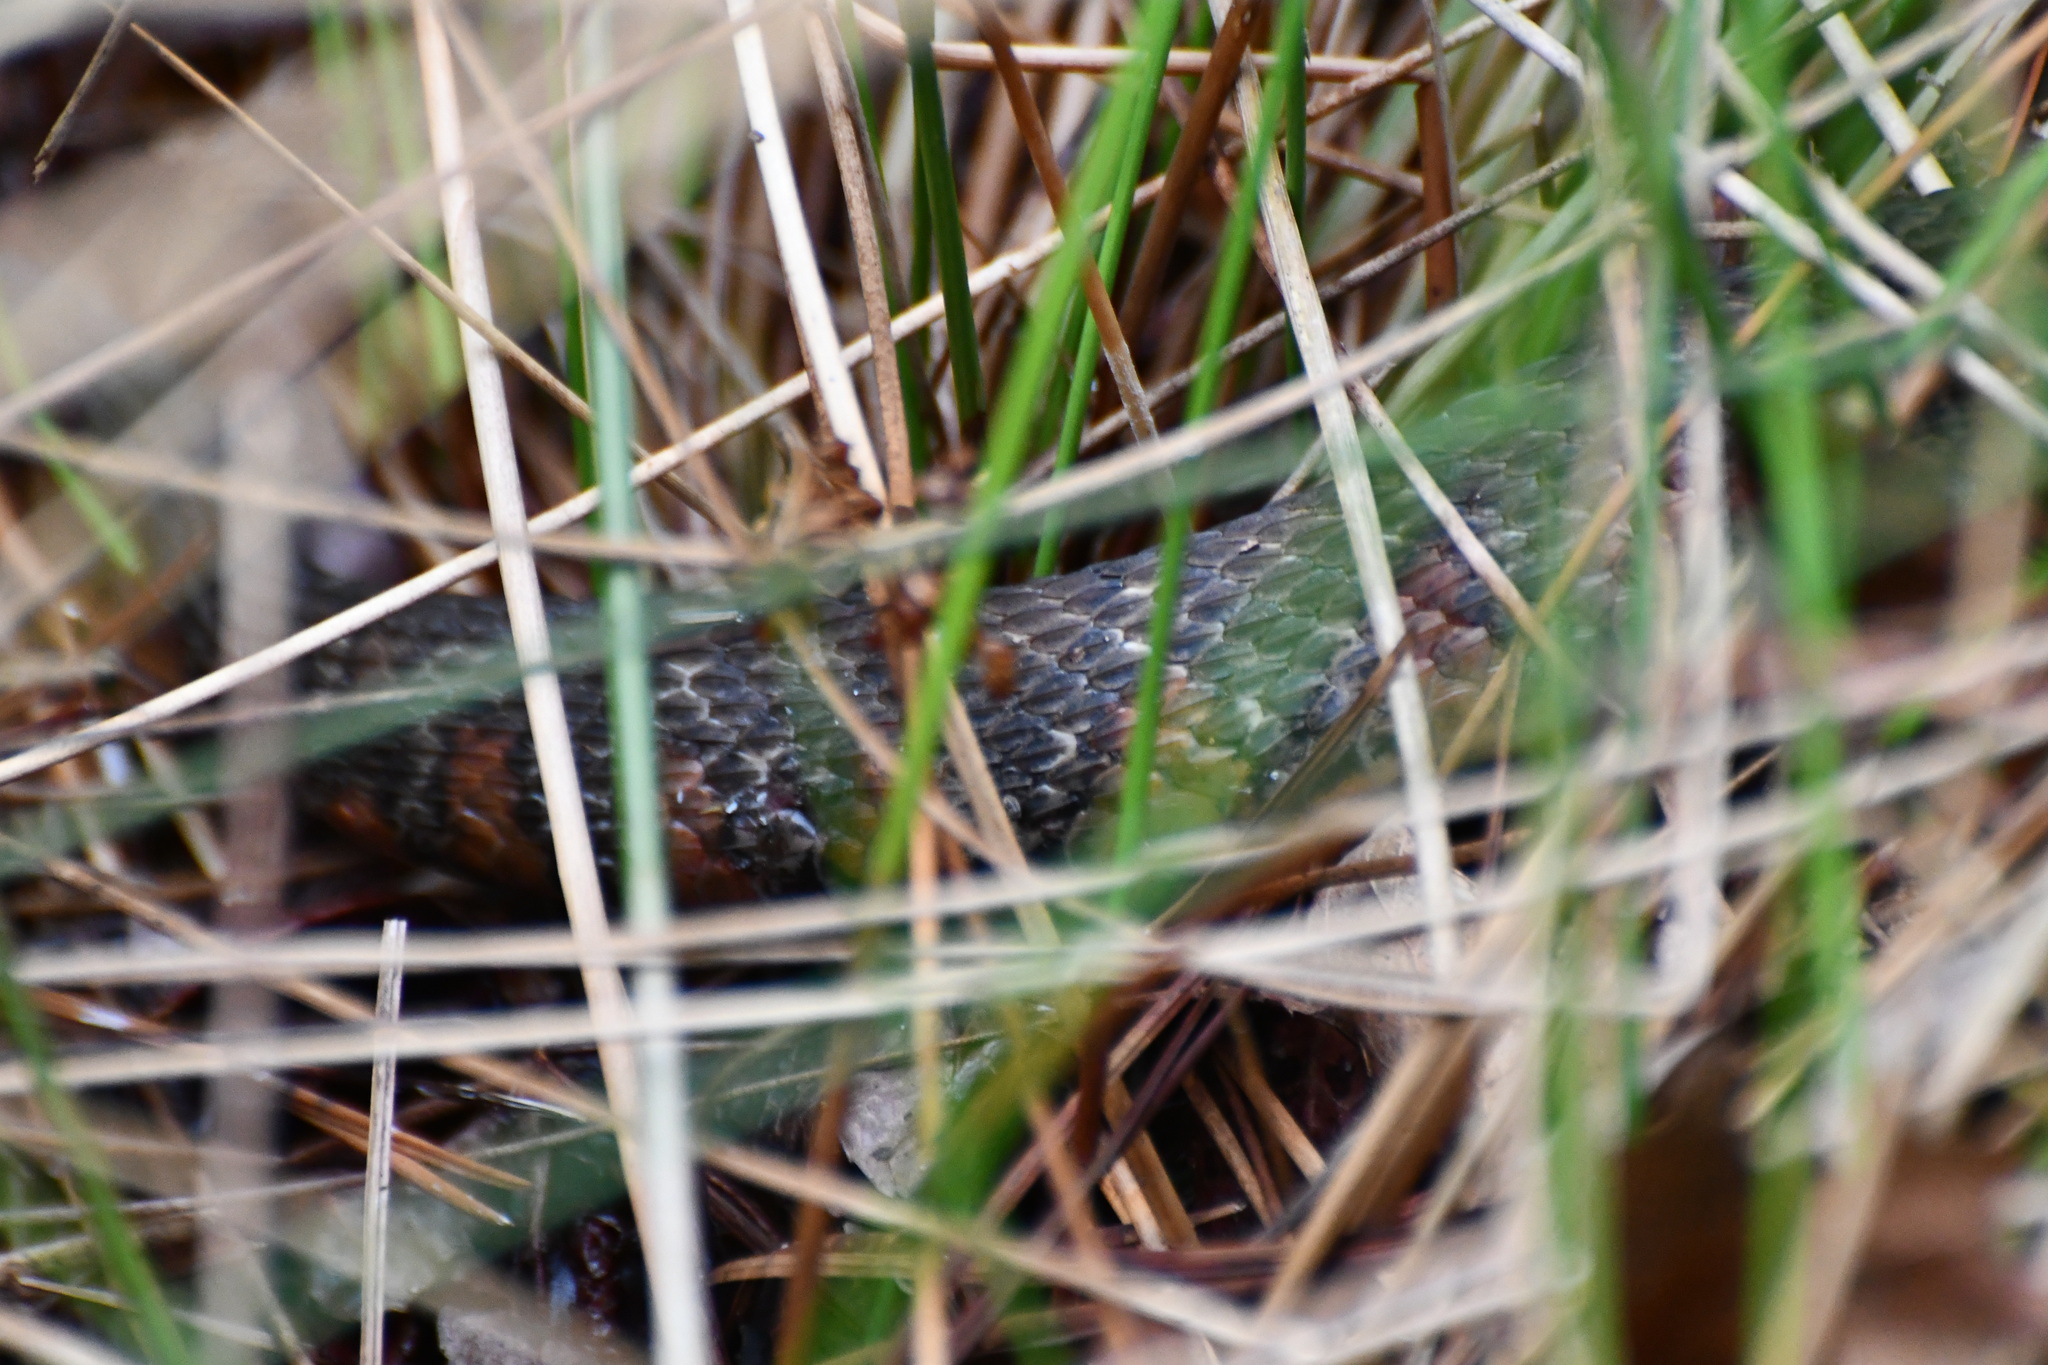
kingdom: Animalia
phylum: Chordata
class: Squamata
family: Colubridae
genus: Nerodia
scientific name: Nerodia sipedon
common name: Northern water snake
